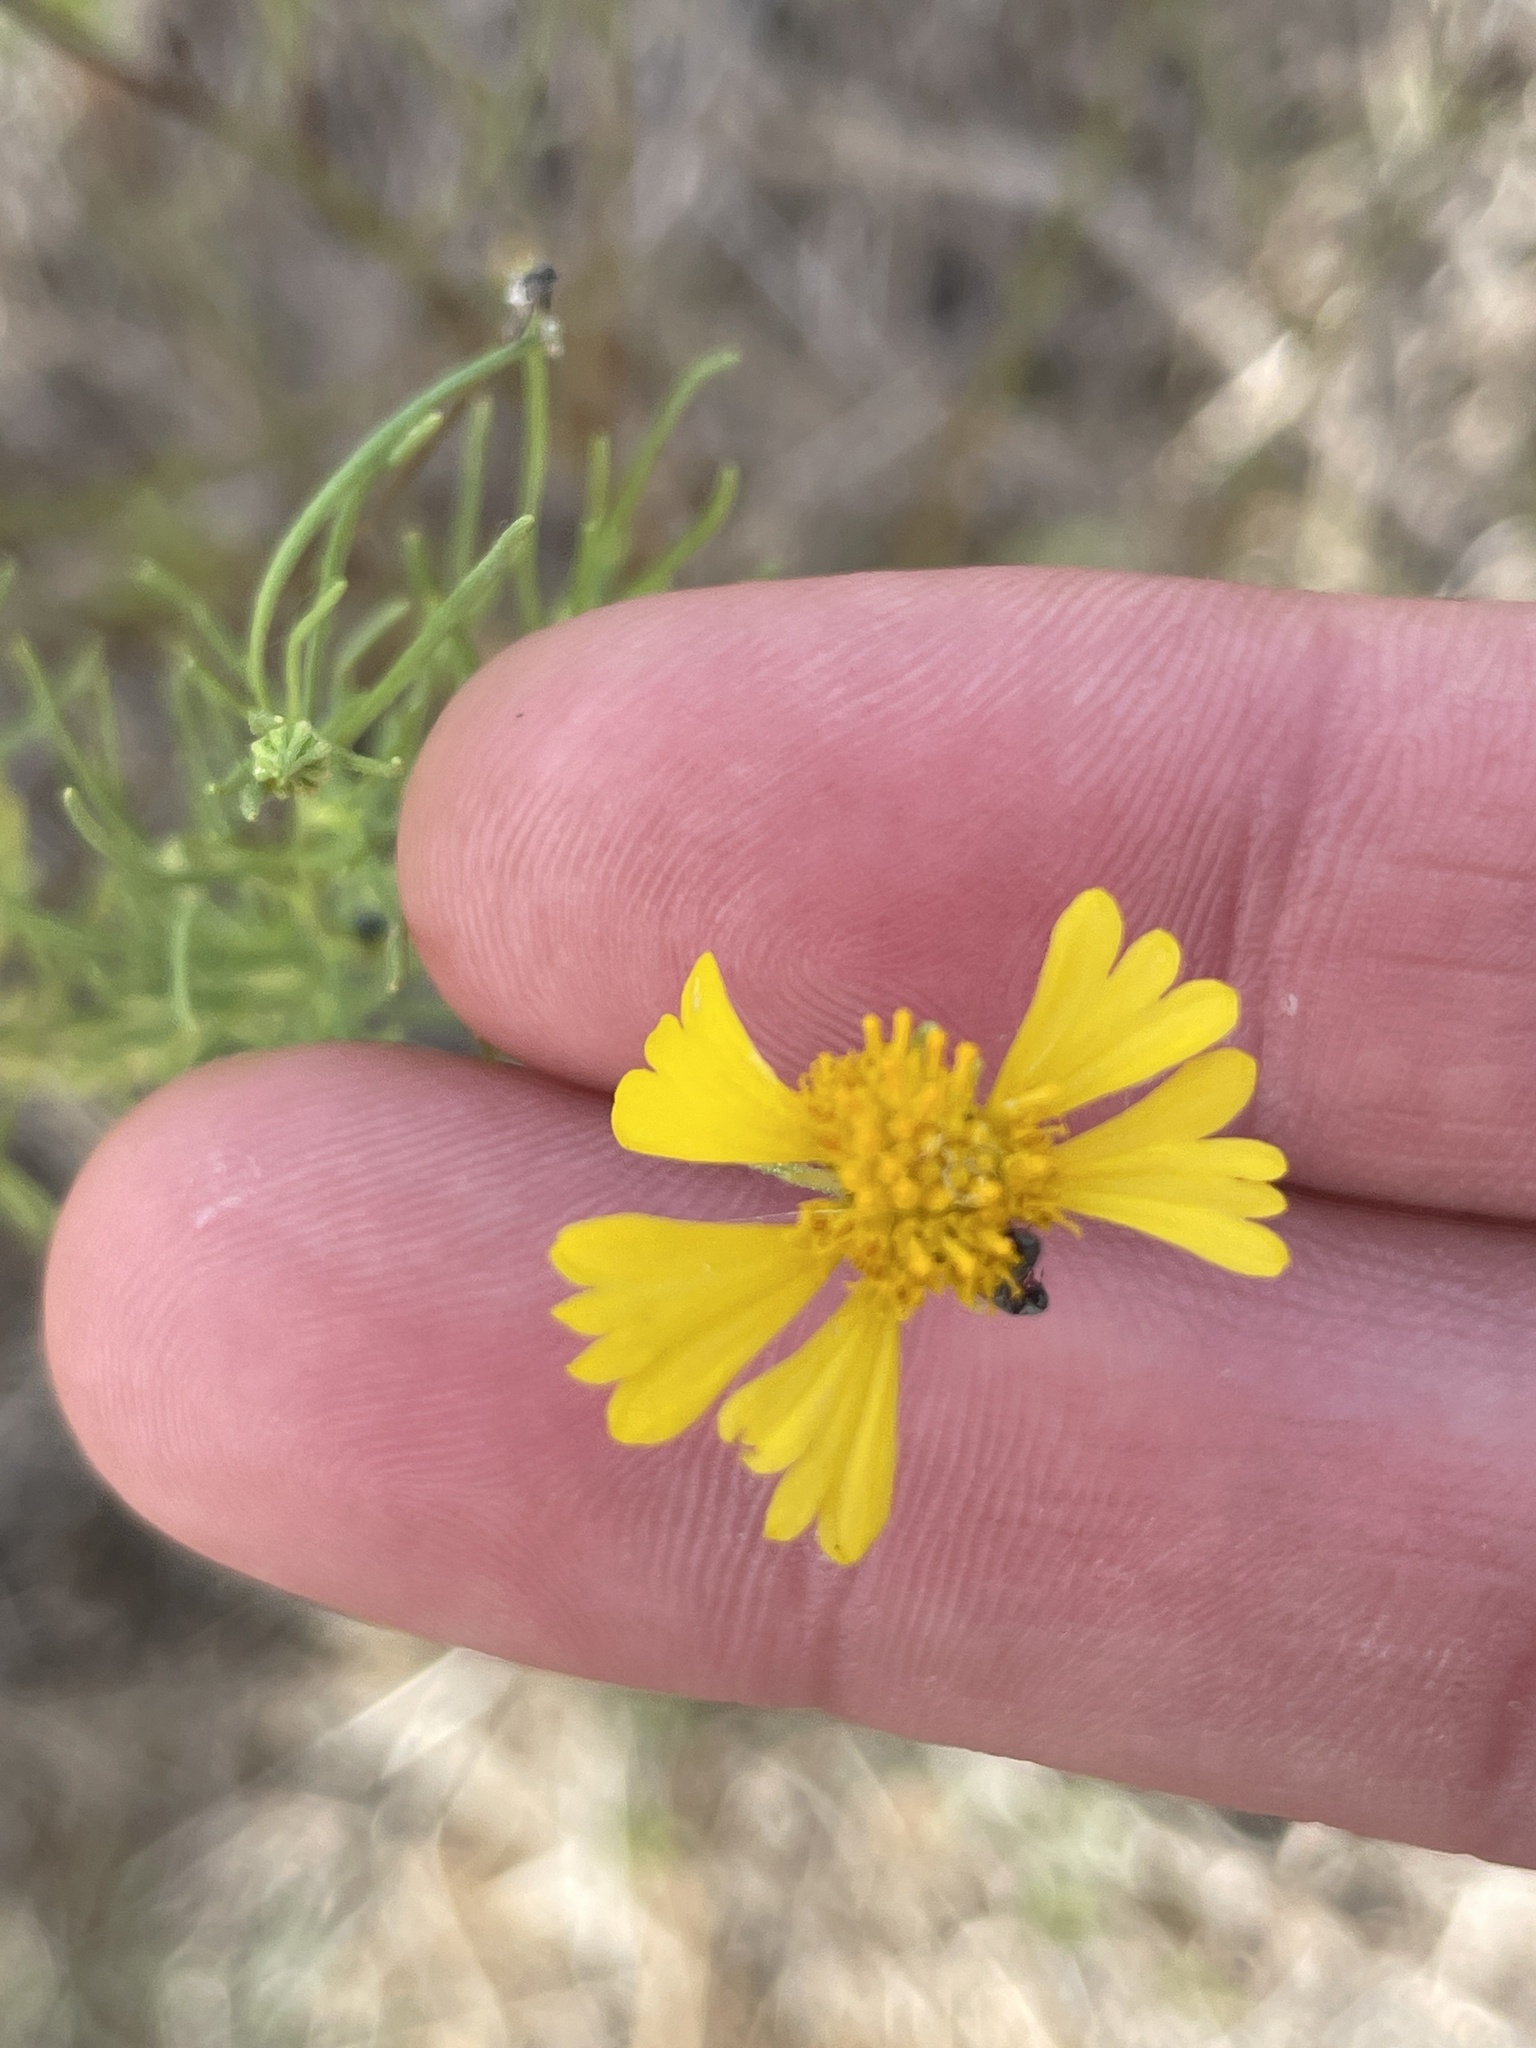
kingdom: Plantae
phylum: Tracheophyta
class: Magnoliopsida
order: Asterales
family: Asteraceae
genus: Helenium
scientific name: Helenium amarum
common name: Bitter sneezeweed
